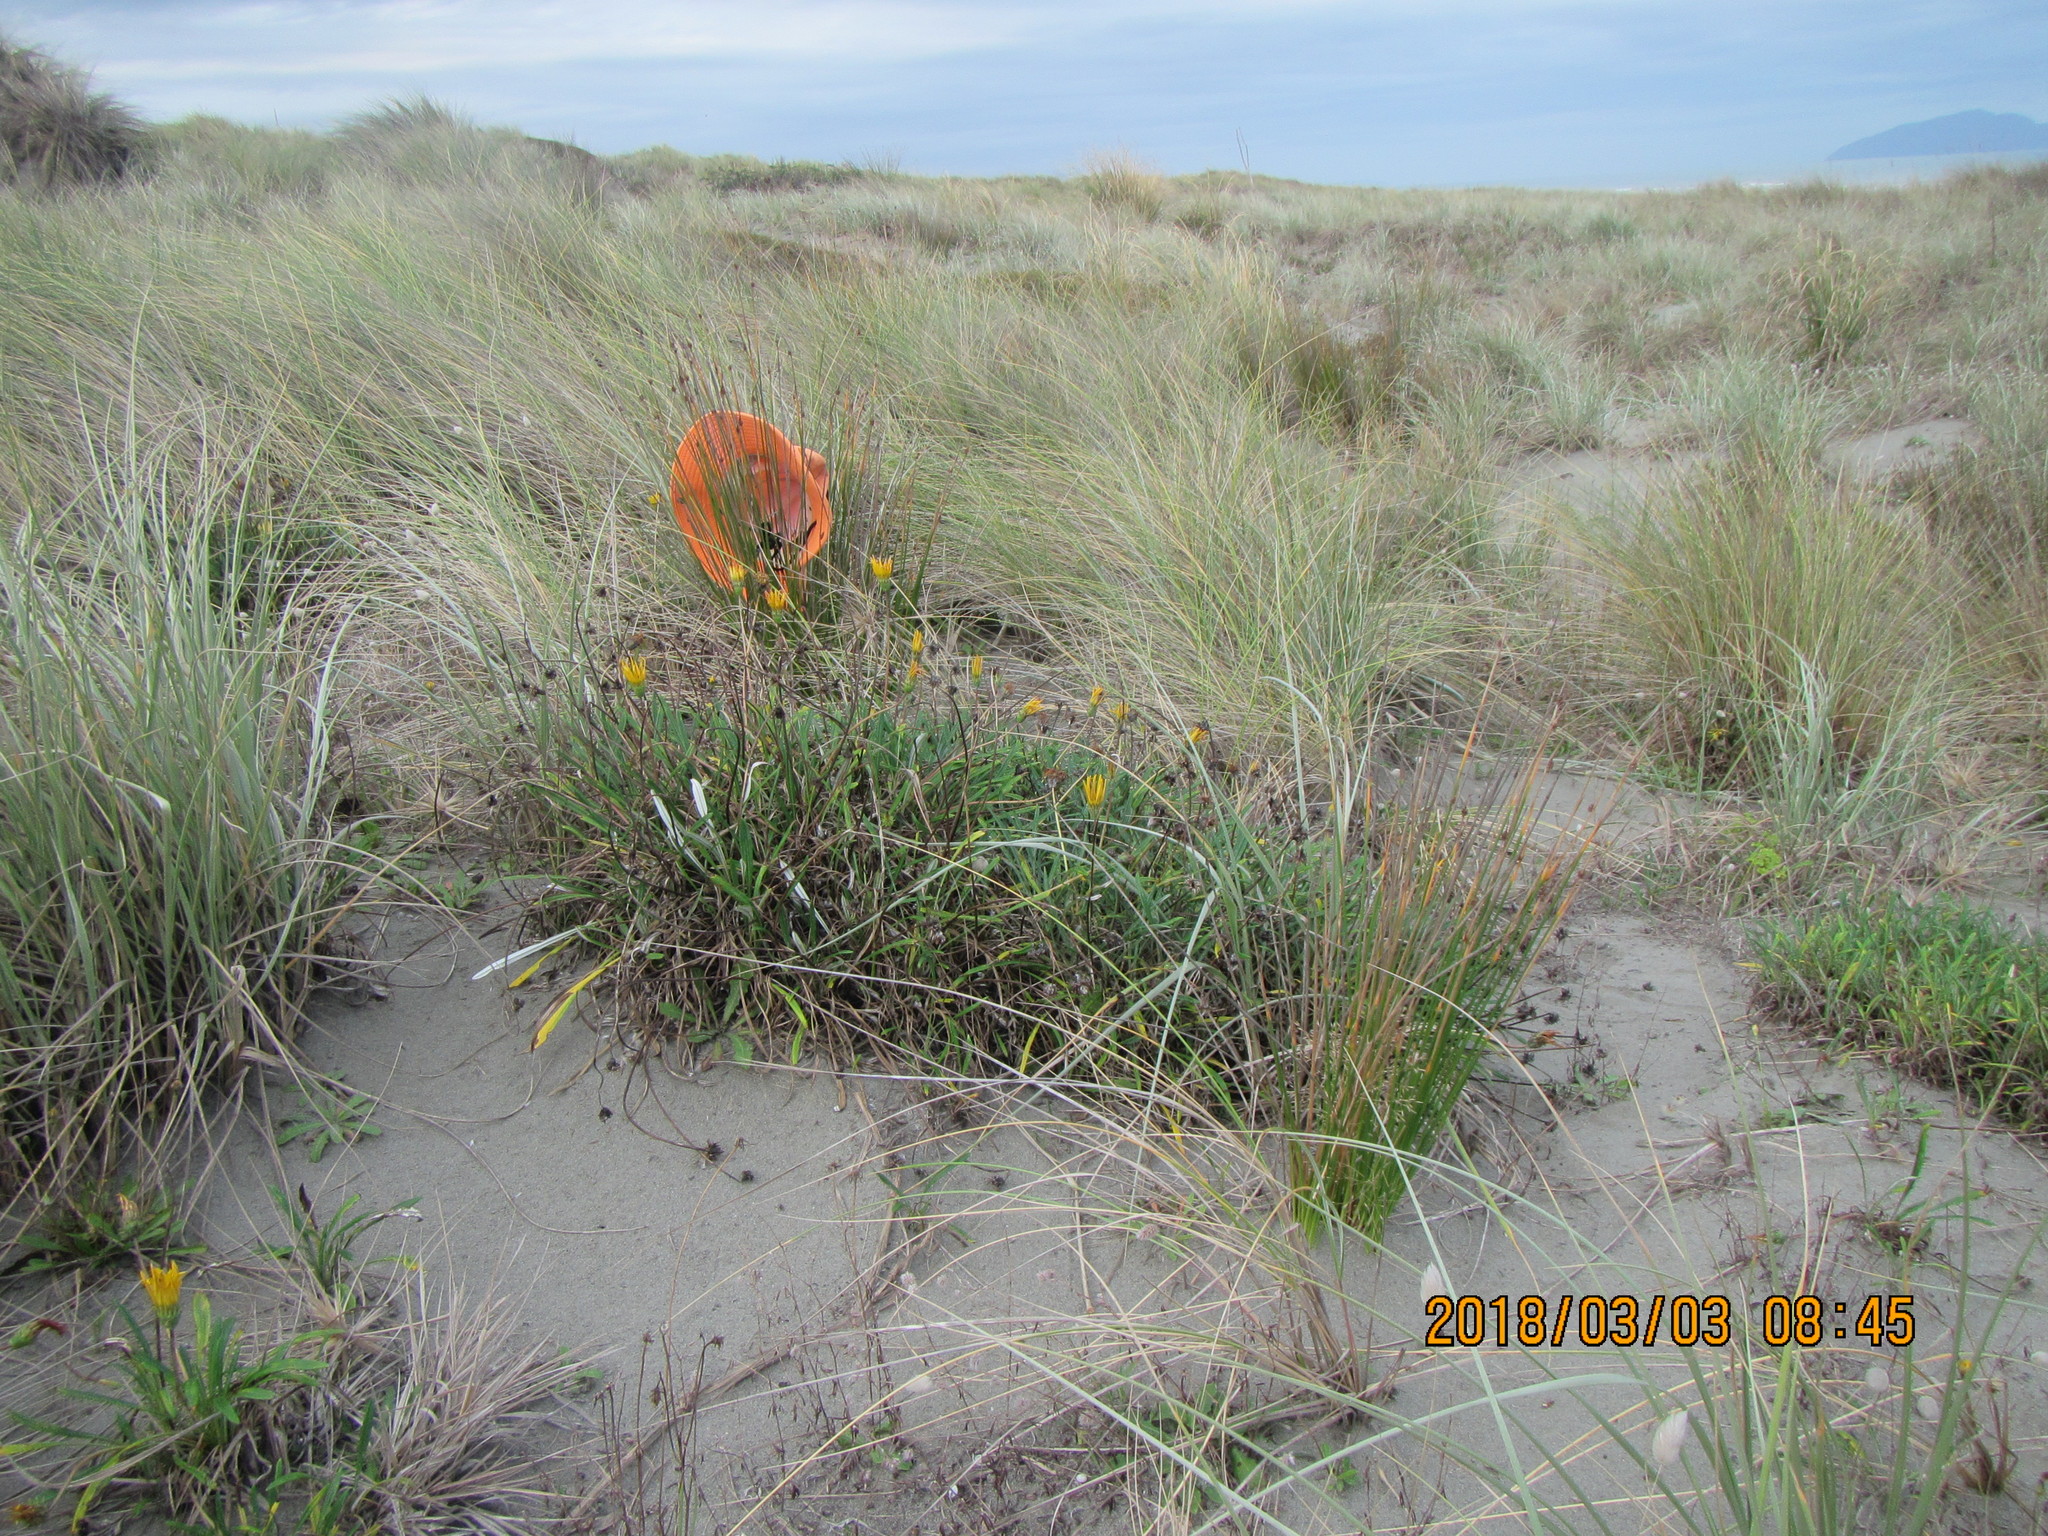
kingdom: Plantae
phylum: Tracheophyta
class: Liliopsida
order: Poales
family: Cyperaceae
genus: Ficinia
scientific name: Ficinia nodosa
